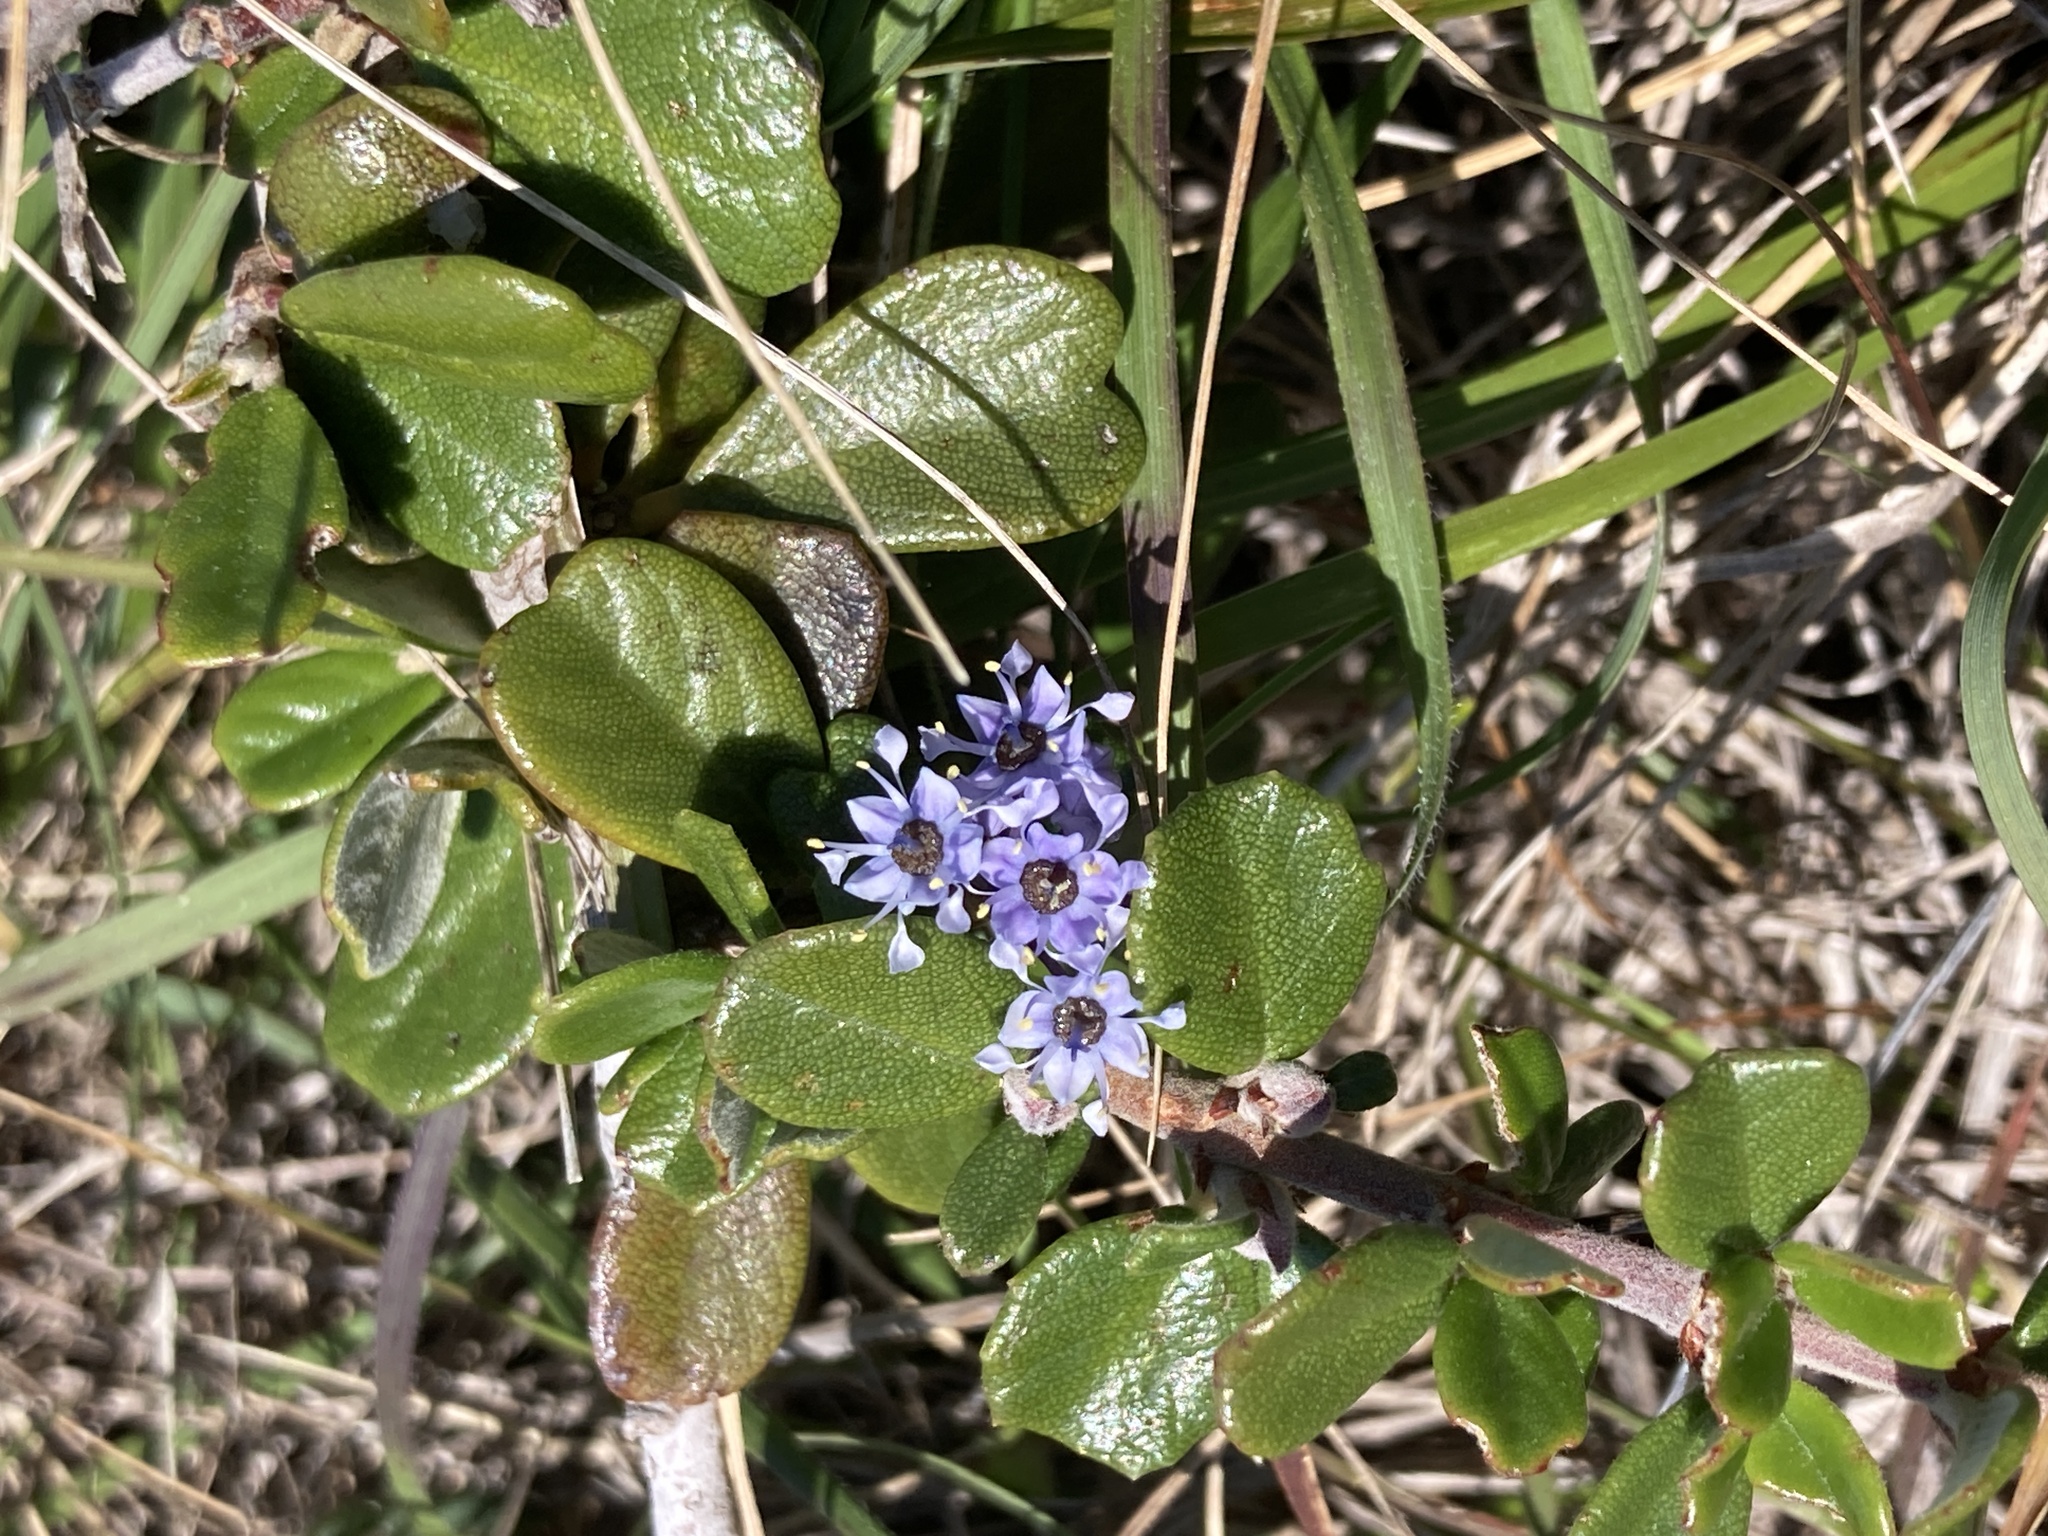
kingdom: Plantae
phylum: Tracheophyta
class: Magnoliopsida
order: Rosales
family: Rhamnaceae
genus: Ceanothus
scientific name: Ceanothus maritimus
